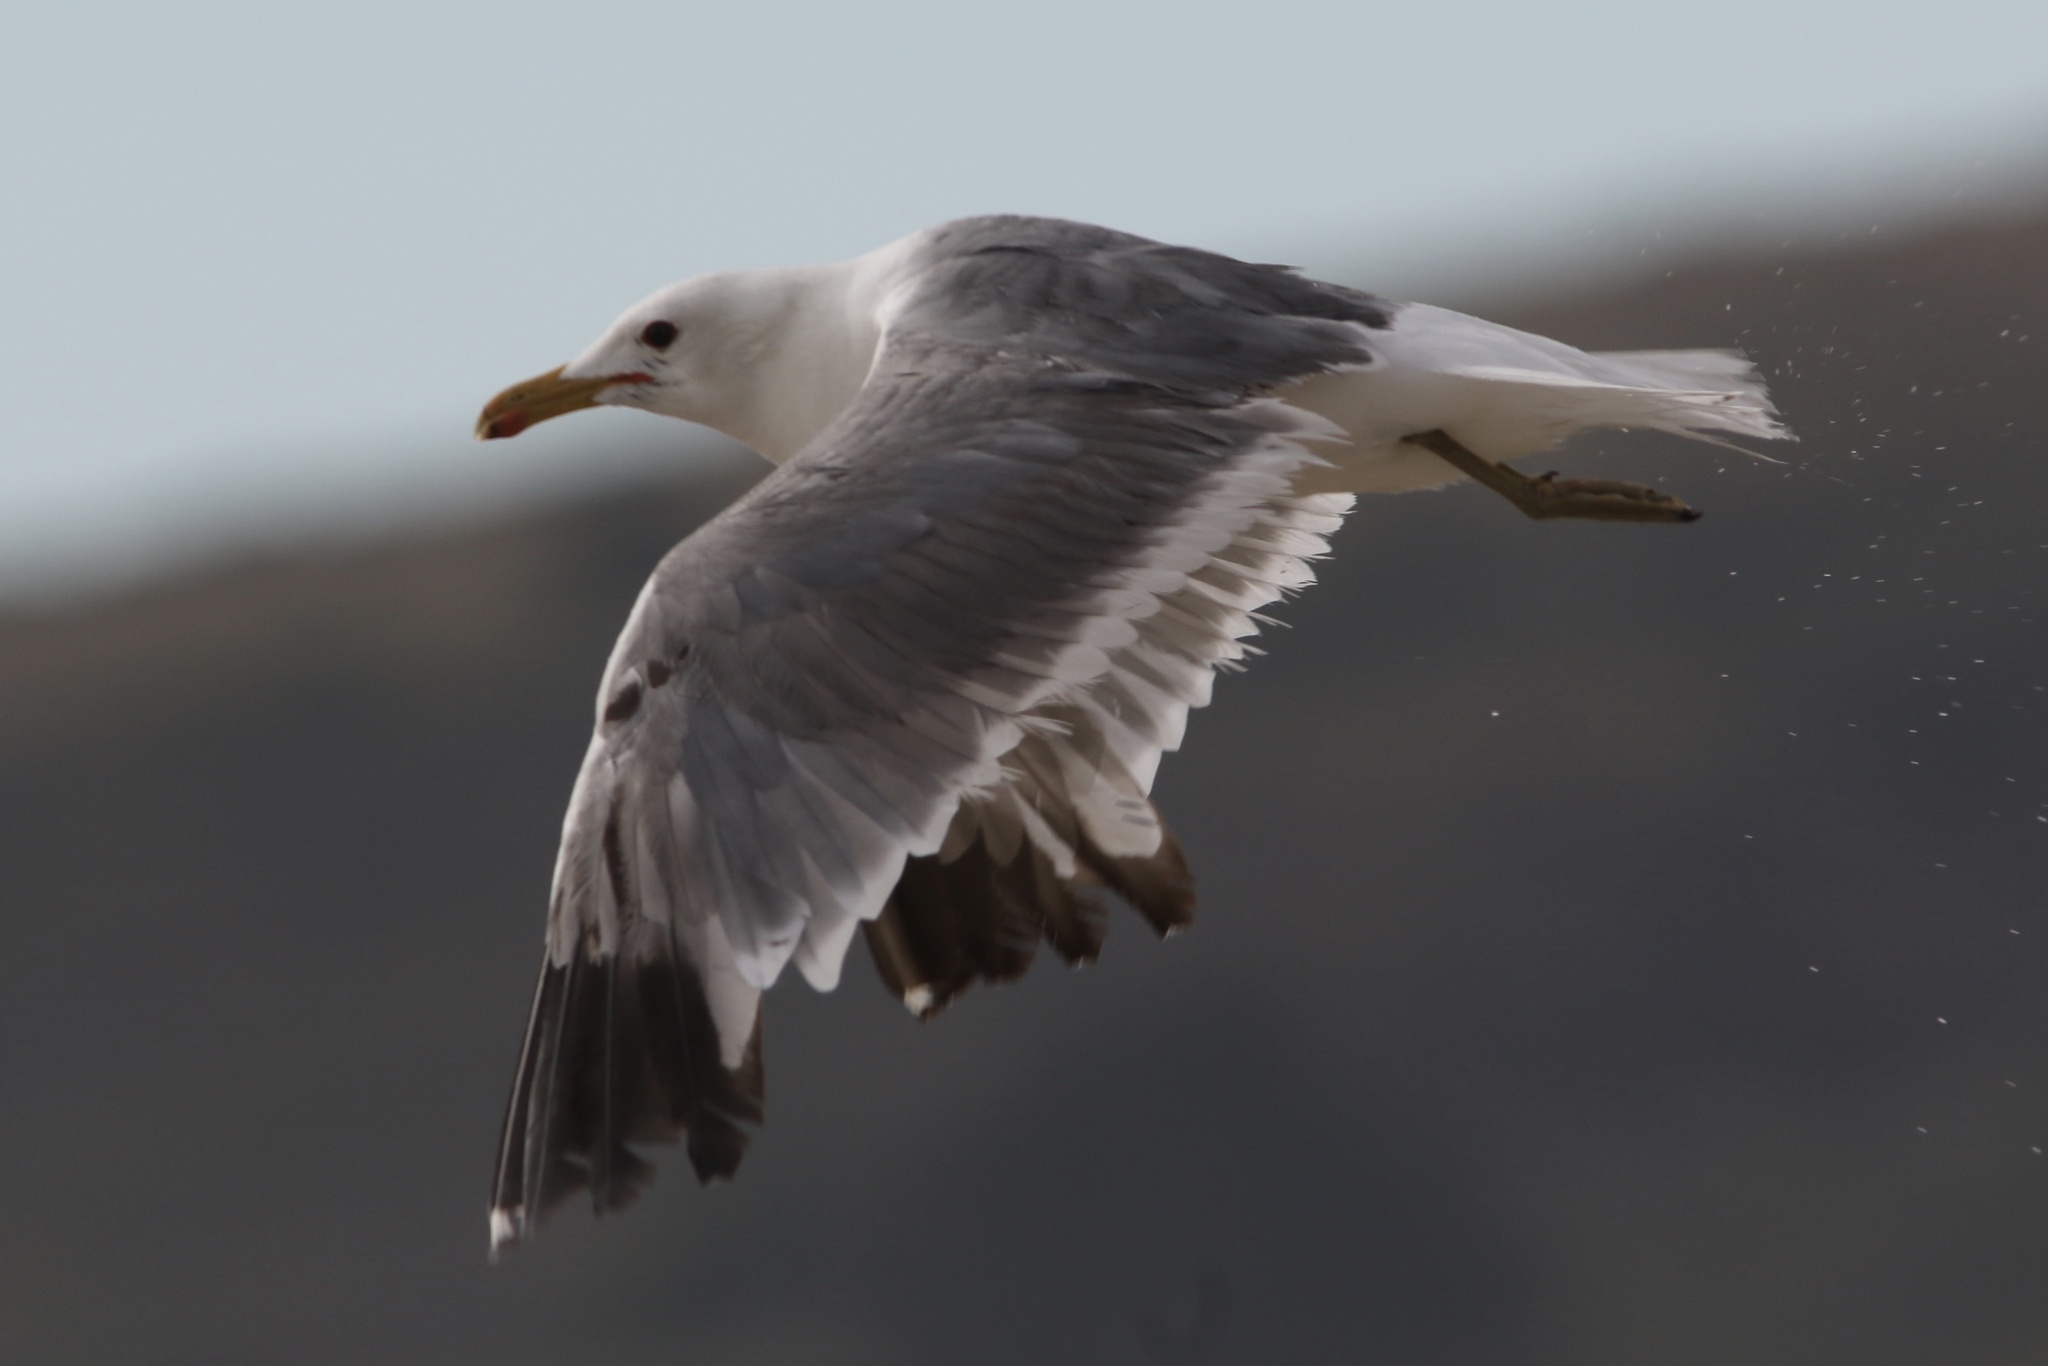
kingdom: Animalia
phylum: Chordata
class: Aves
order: Charadriiformes
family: Laridae
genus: Larus
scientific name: Larus californicus
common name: California gull
